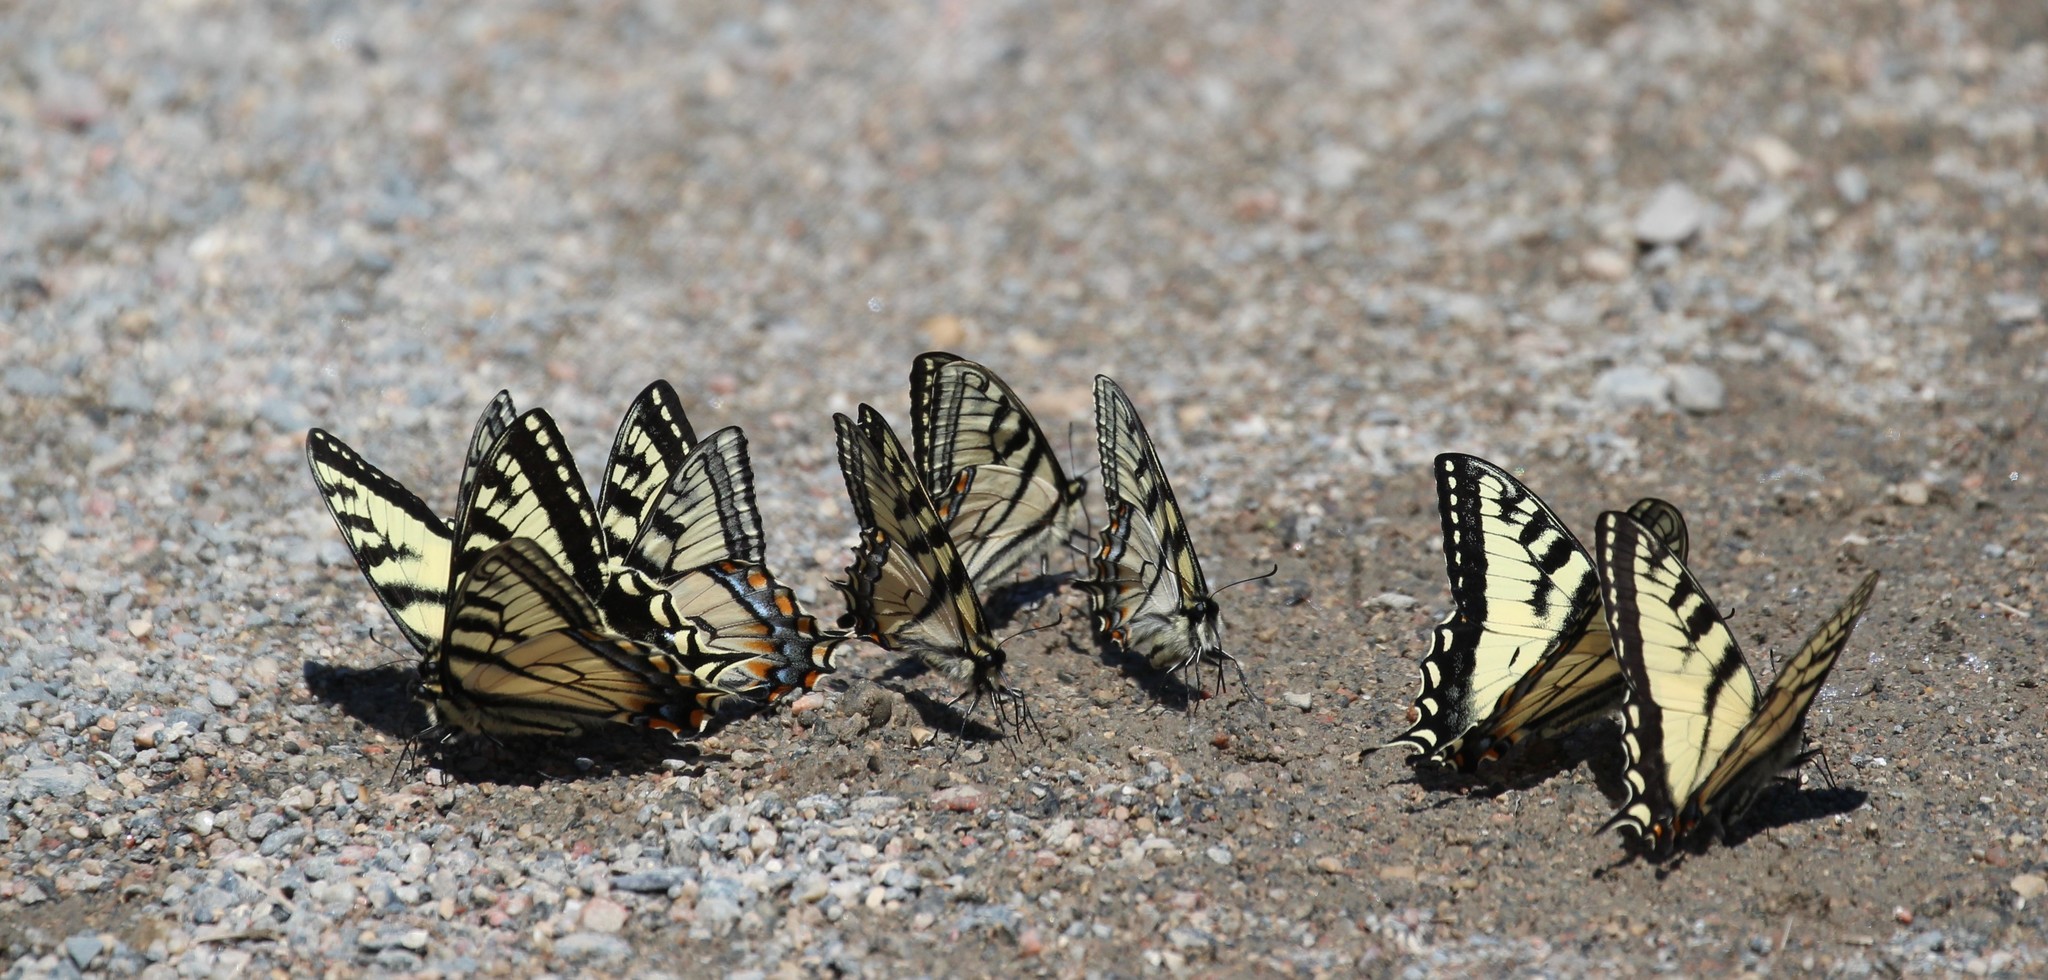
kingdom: Animalia
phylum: Arthropoda
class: Insecta
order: Lepidoptera
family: Papilionidae
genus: Papilio
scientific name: Papilio canadensis
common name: Canadian tiger swallowtail
